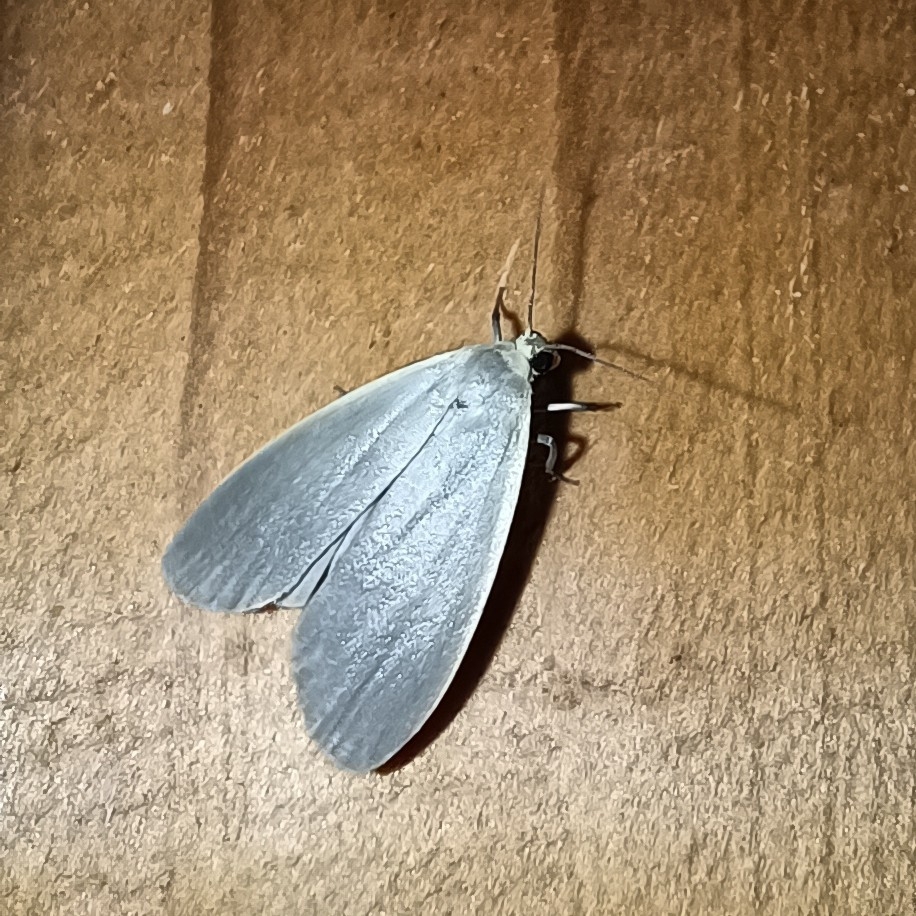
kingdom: Animalia
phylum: Arthropoda
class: Insecta
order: Lepidoptera
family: Erebidae
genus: Collita
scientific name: Collita griseola
